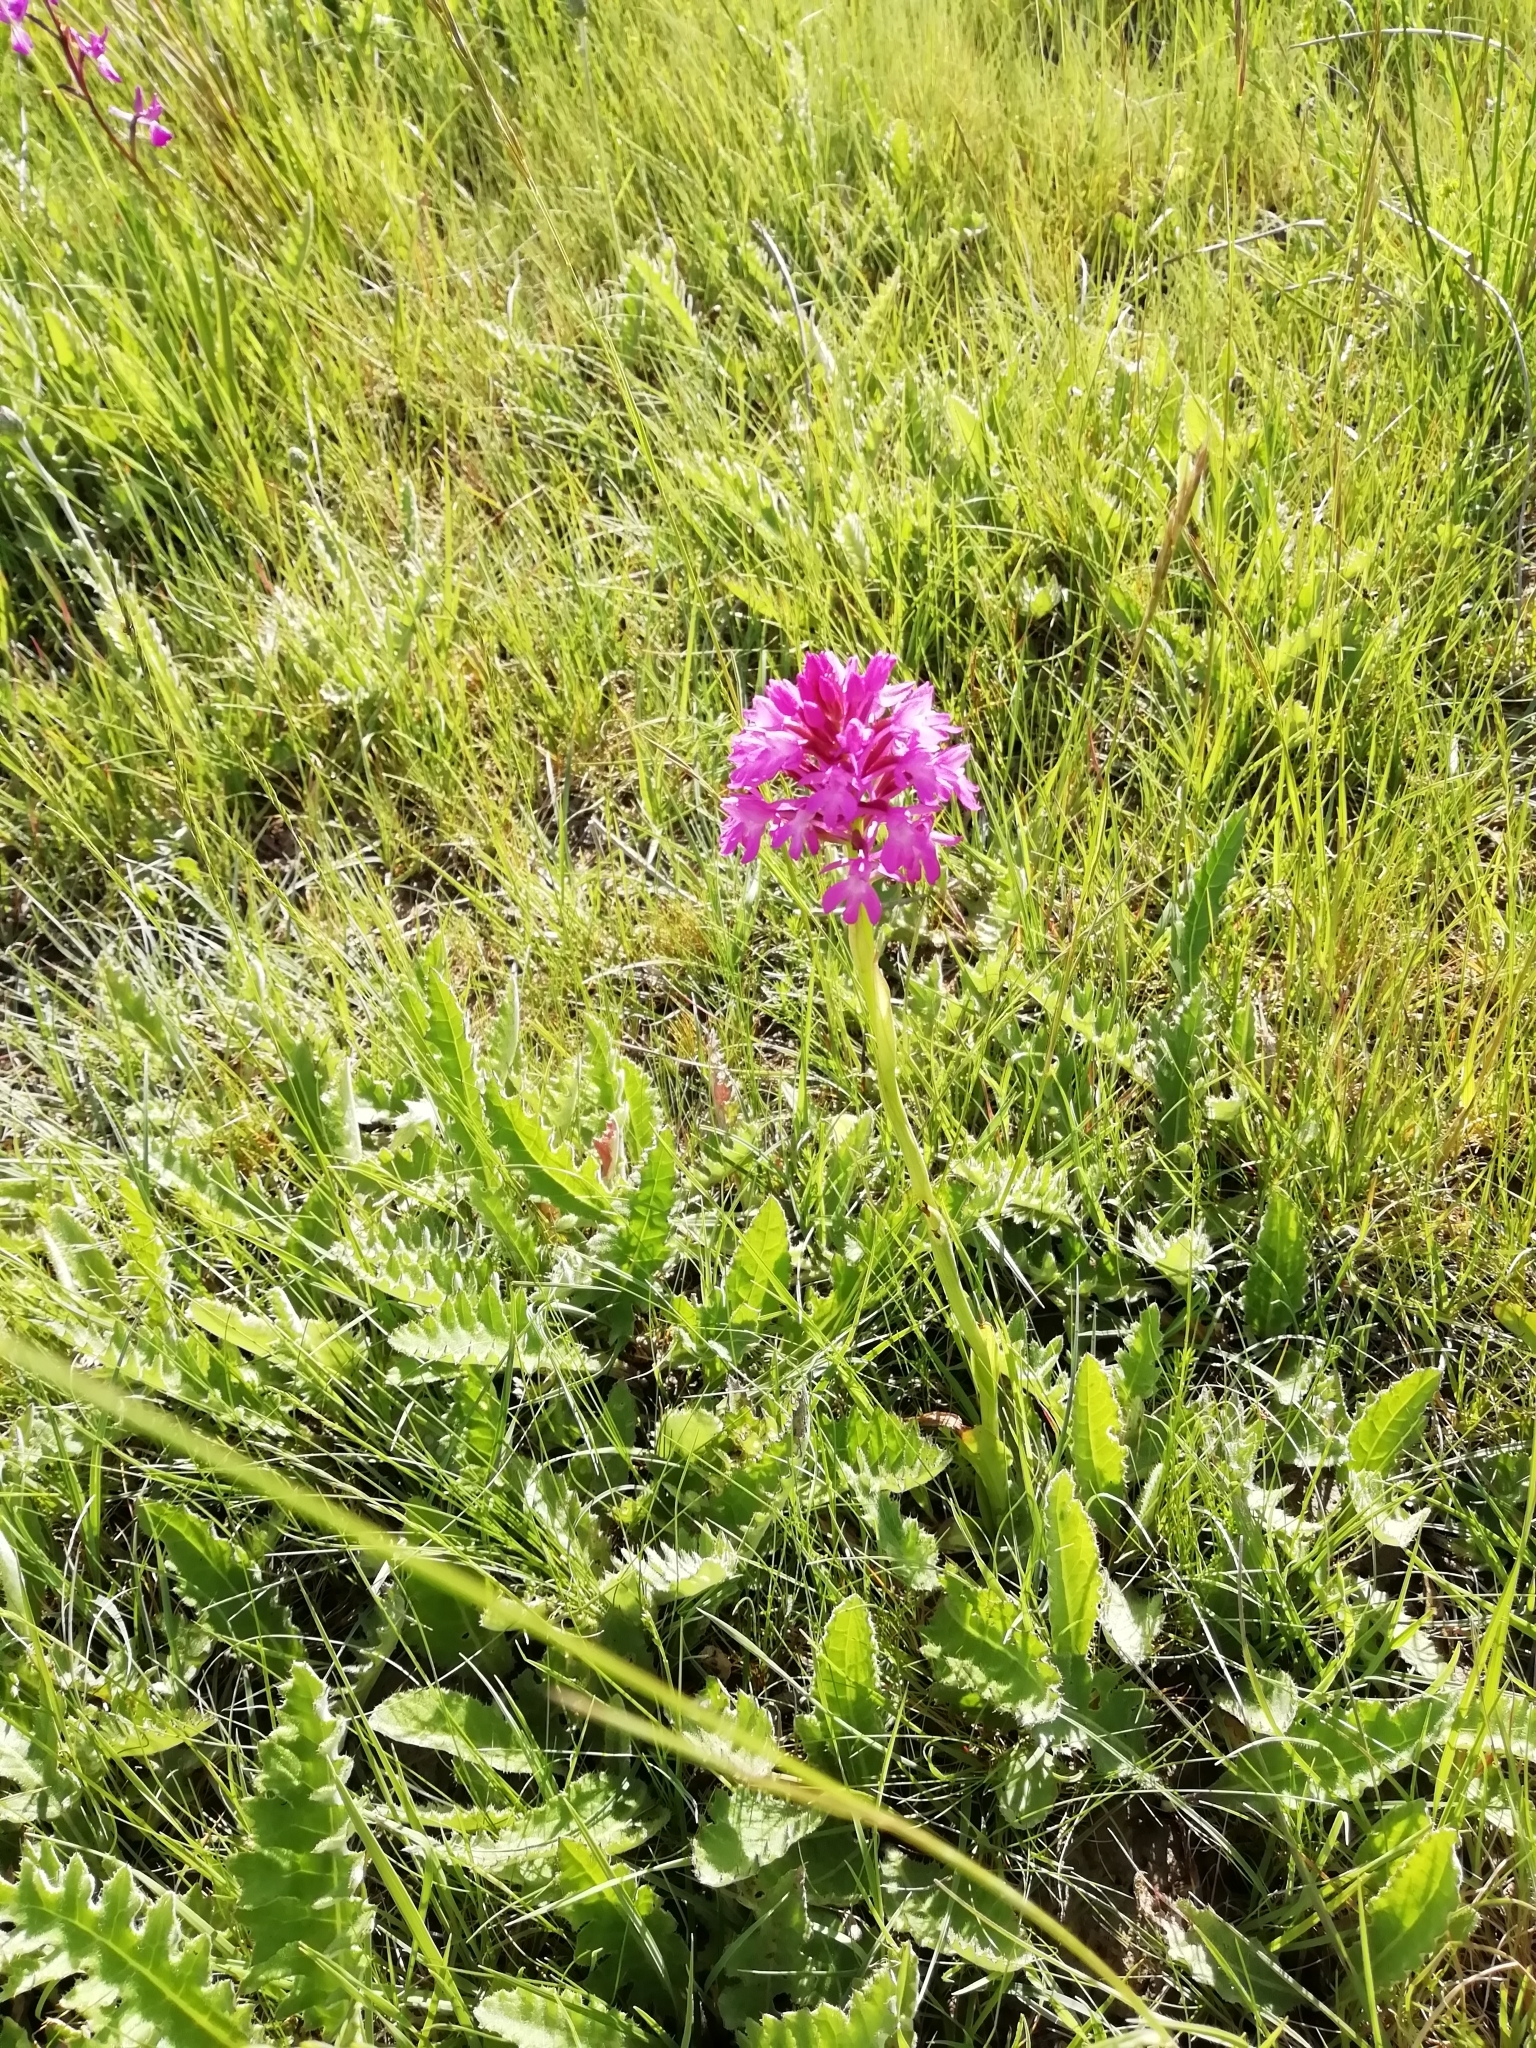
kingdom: Plantae
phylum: Tracheophyta
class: Liliopsida
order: Asparagales
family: Orchidaceae
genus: Anacamptis
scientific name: Anacamptis pyramidalis
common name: Pyramidal orchid
